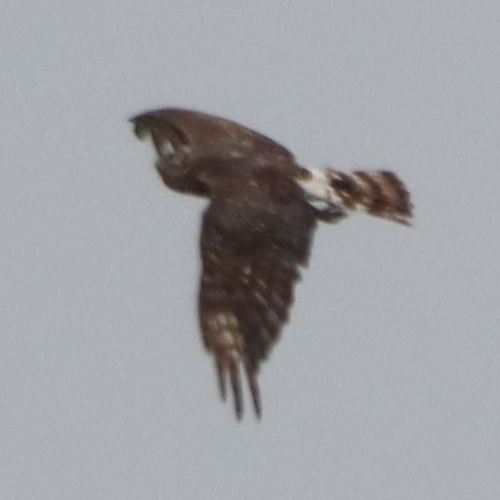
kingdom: Animalia
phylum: Chordata
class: Aves
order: Accipitriformes
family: Accipitridae
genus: Circus
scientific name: Circus cyaneus
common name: Hen harrier
